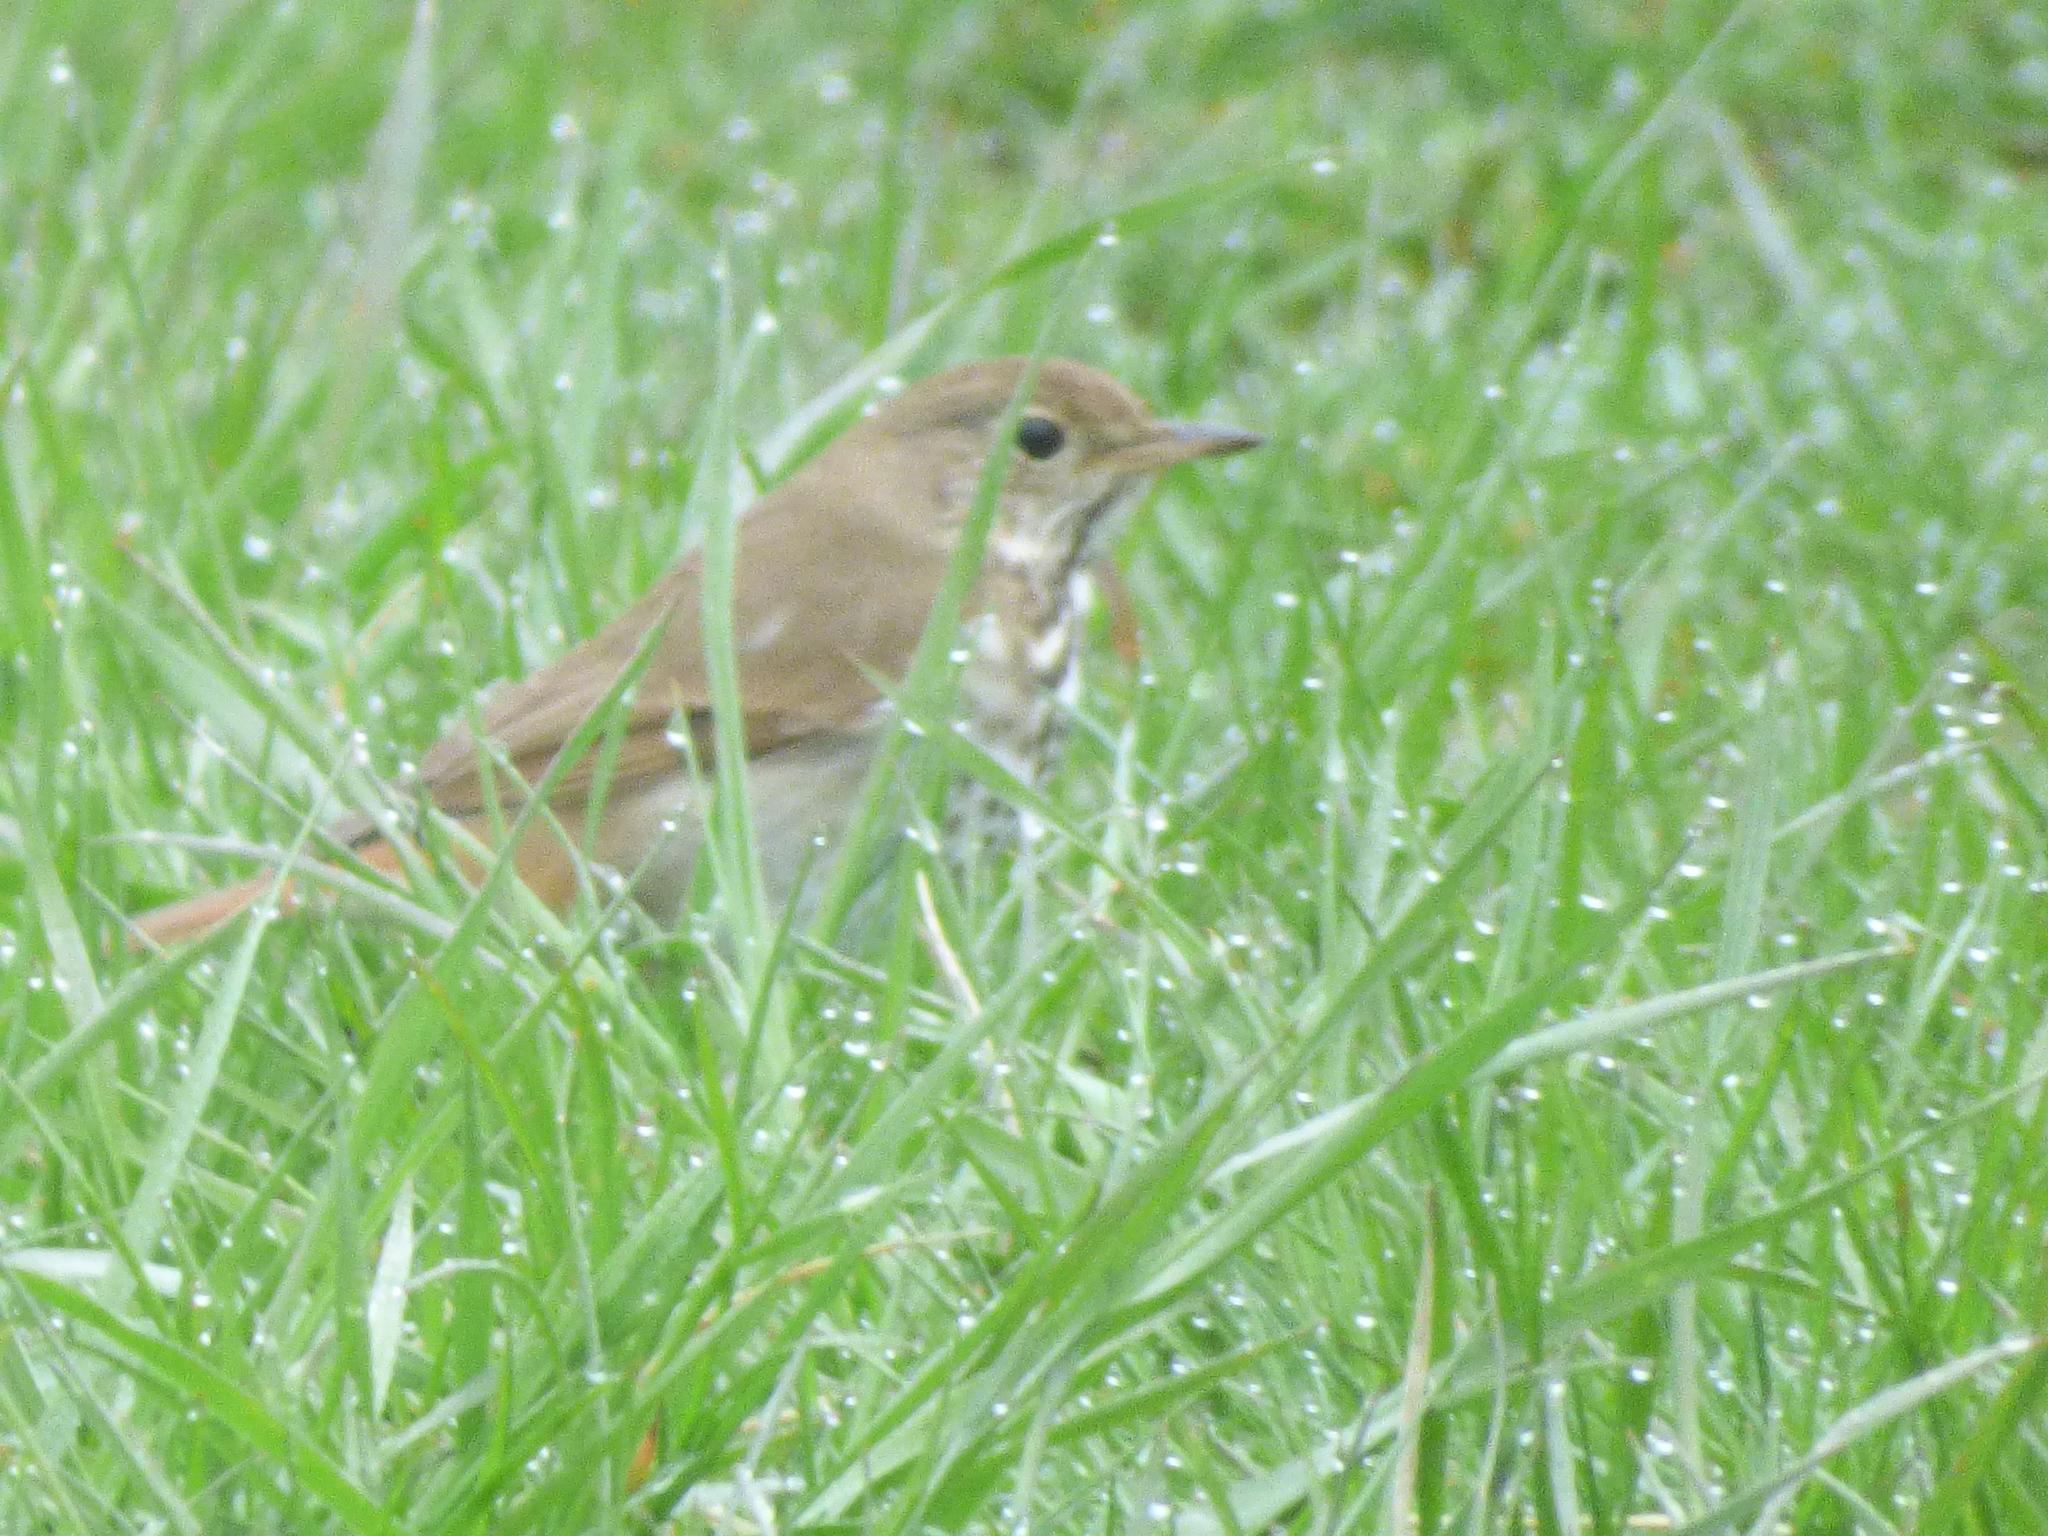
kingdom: Animalia
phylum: Chordata
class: Aves
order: Passeriformes
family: Turdidae
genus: Catharus
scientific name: Catharus guttatus
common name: Hermit thrush
